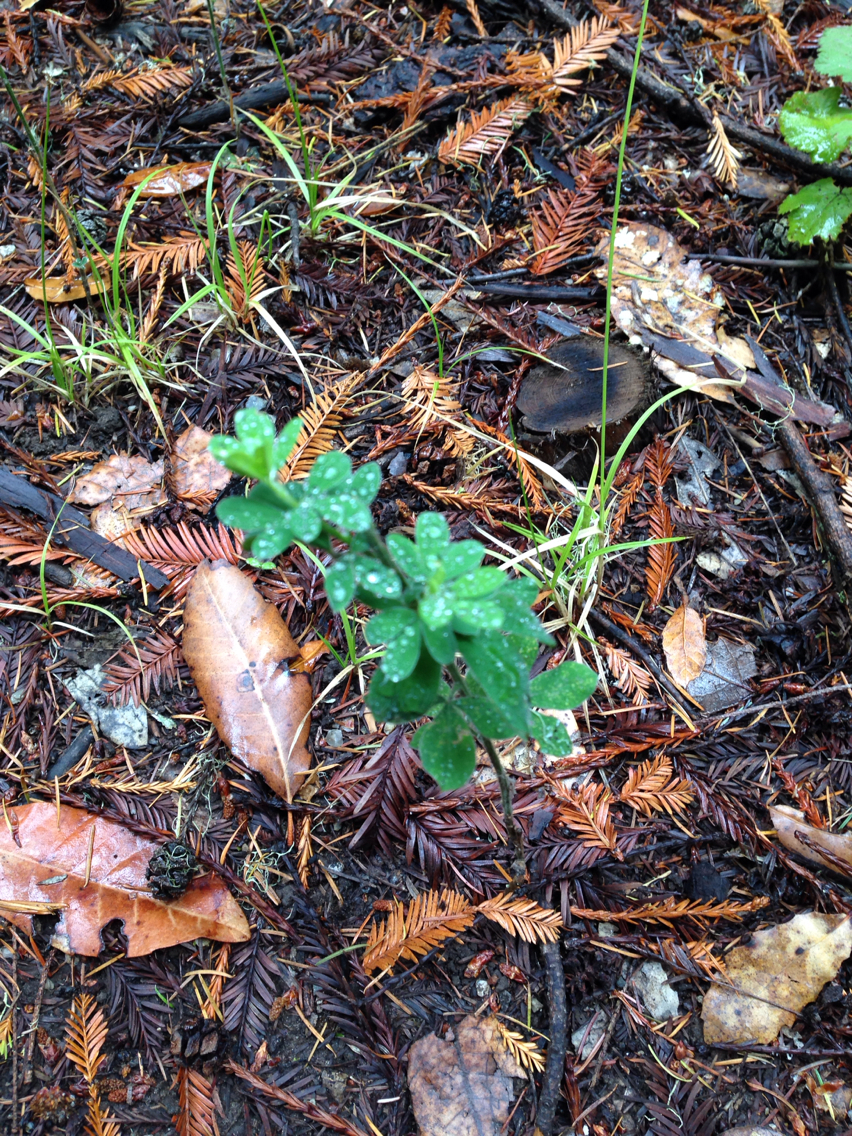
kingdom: Plantae
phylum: Tracheophyta
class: Magnoliopsida
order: Fabales
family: Fabaceae
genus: Genista
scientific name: Genista monspessulana
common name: Montpellier broom
